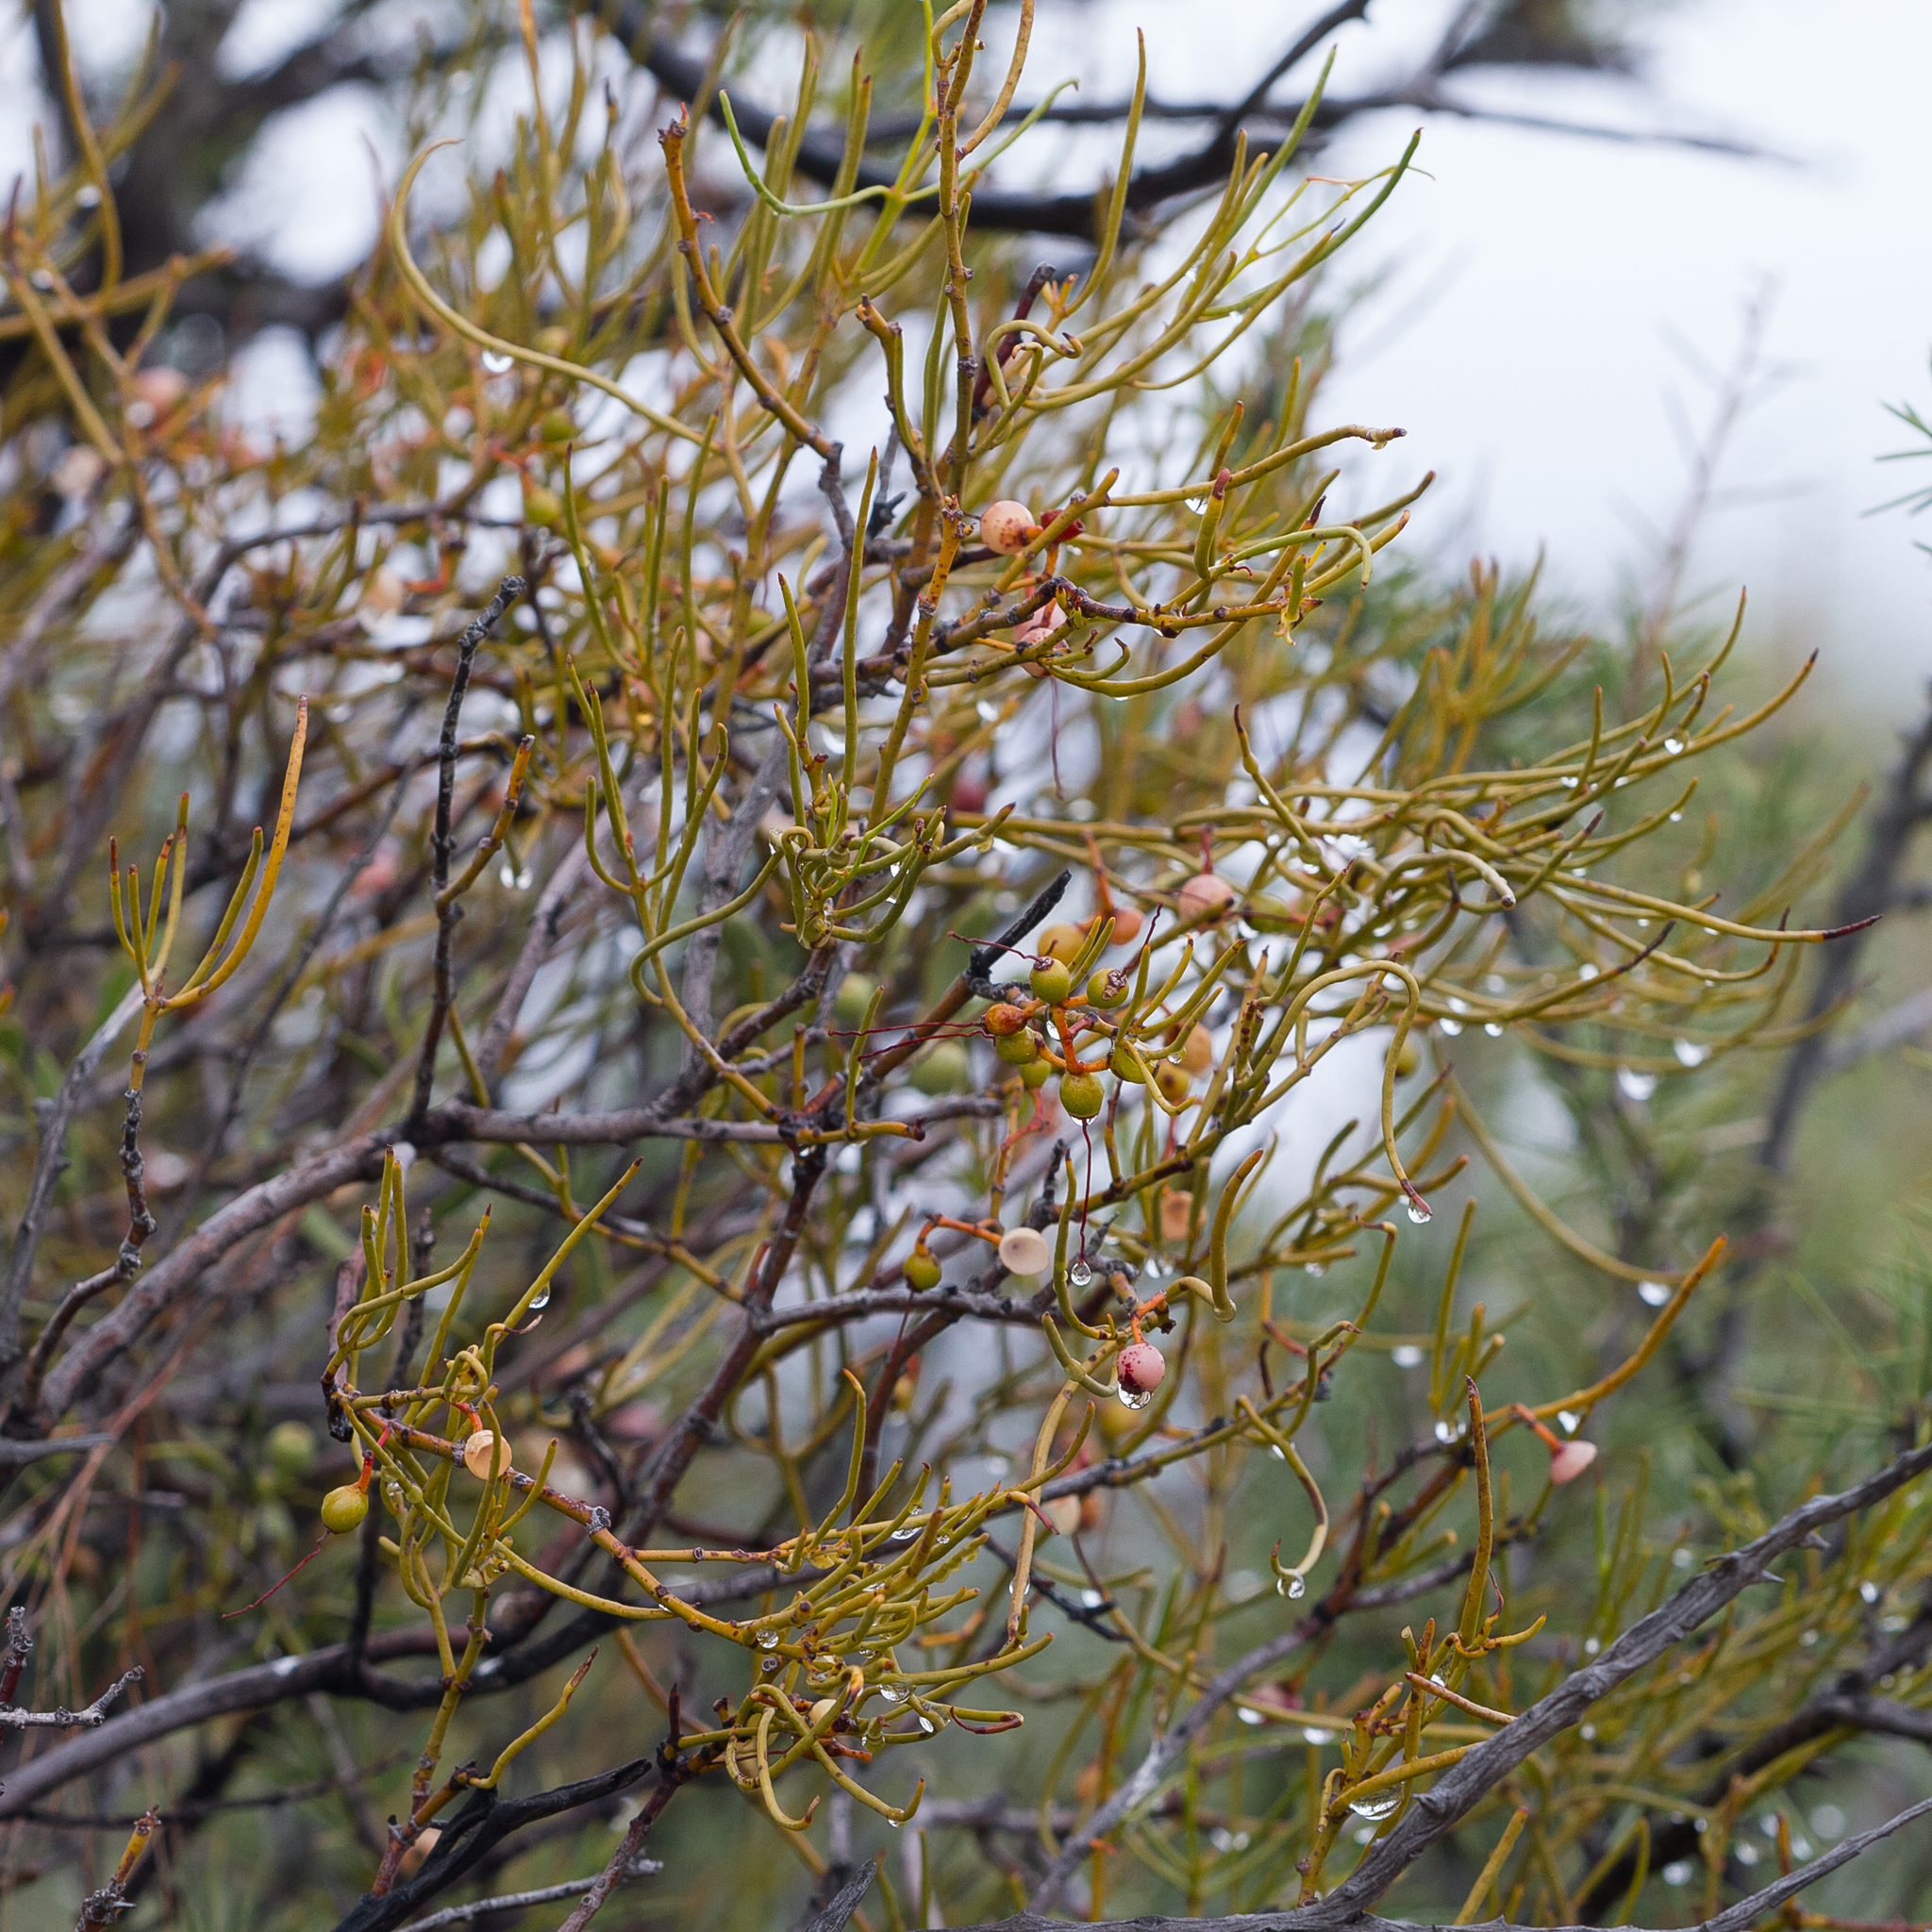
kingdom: Plantae
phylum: Tracheophyta
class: Magnoliopsida
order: Santalales
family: Loranthaceae
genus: Amyema
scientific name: Amyema preissii
